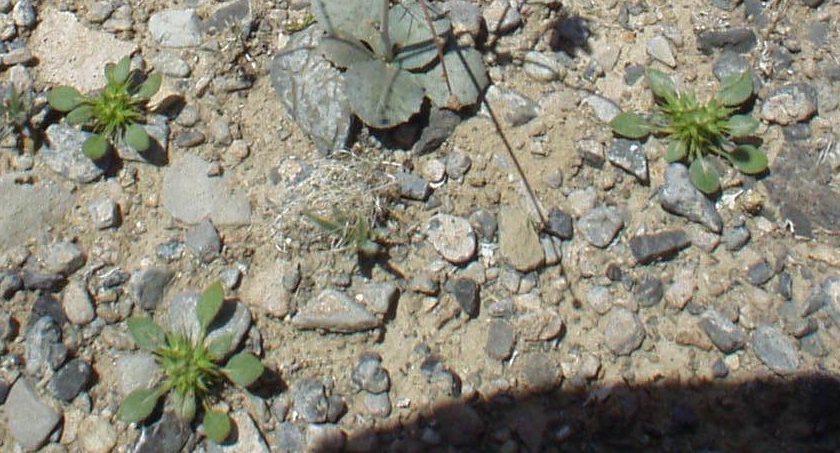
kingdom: Plantae
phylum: Tracheophyta
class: Magnoliopsida
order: Caryophyllales
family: Polygonaceae
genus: Chorizanthe
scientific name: Chorizanthe rigida
